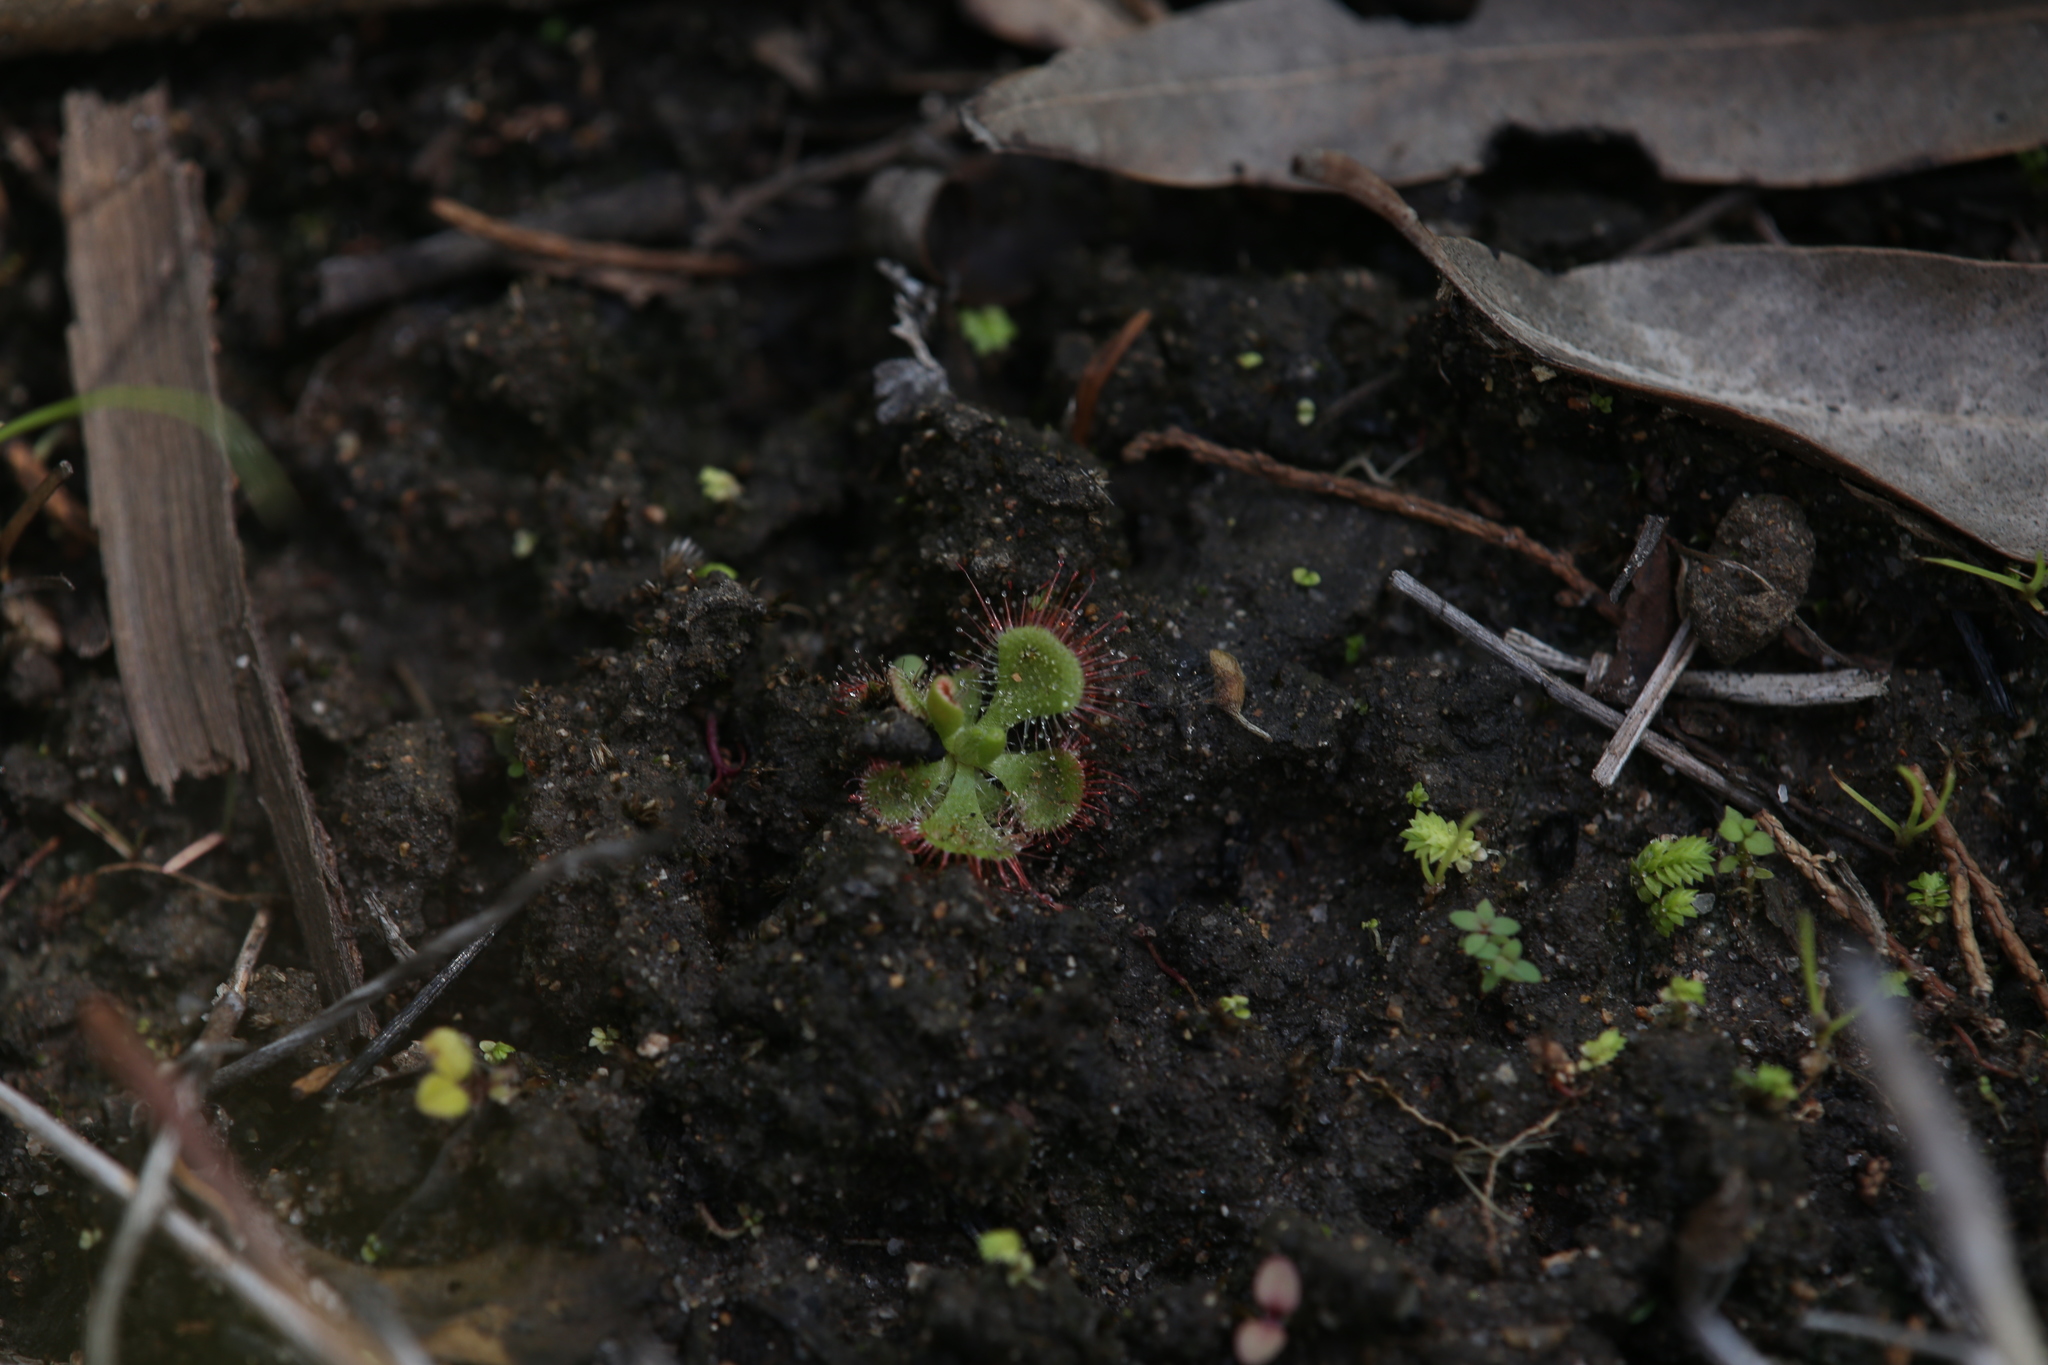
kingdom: Plantae
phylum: Tracheophyta
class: Magnoliopsida
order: Caryophyllales
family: Droseraceae
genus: Drosera
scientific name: Drosera spatulata
